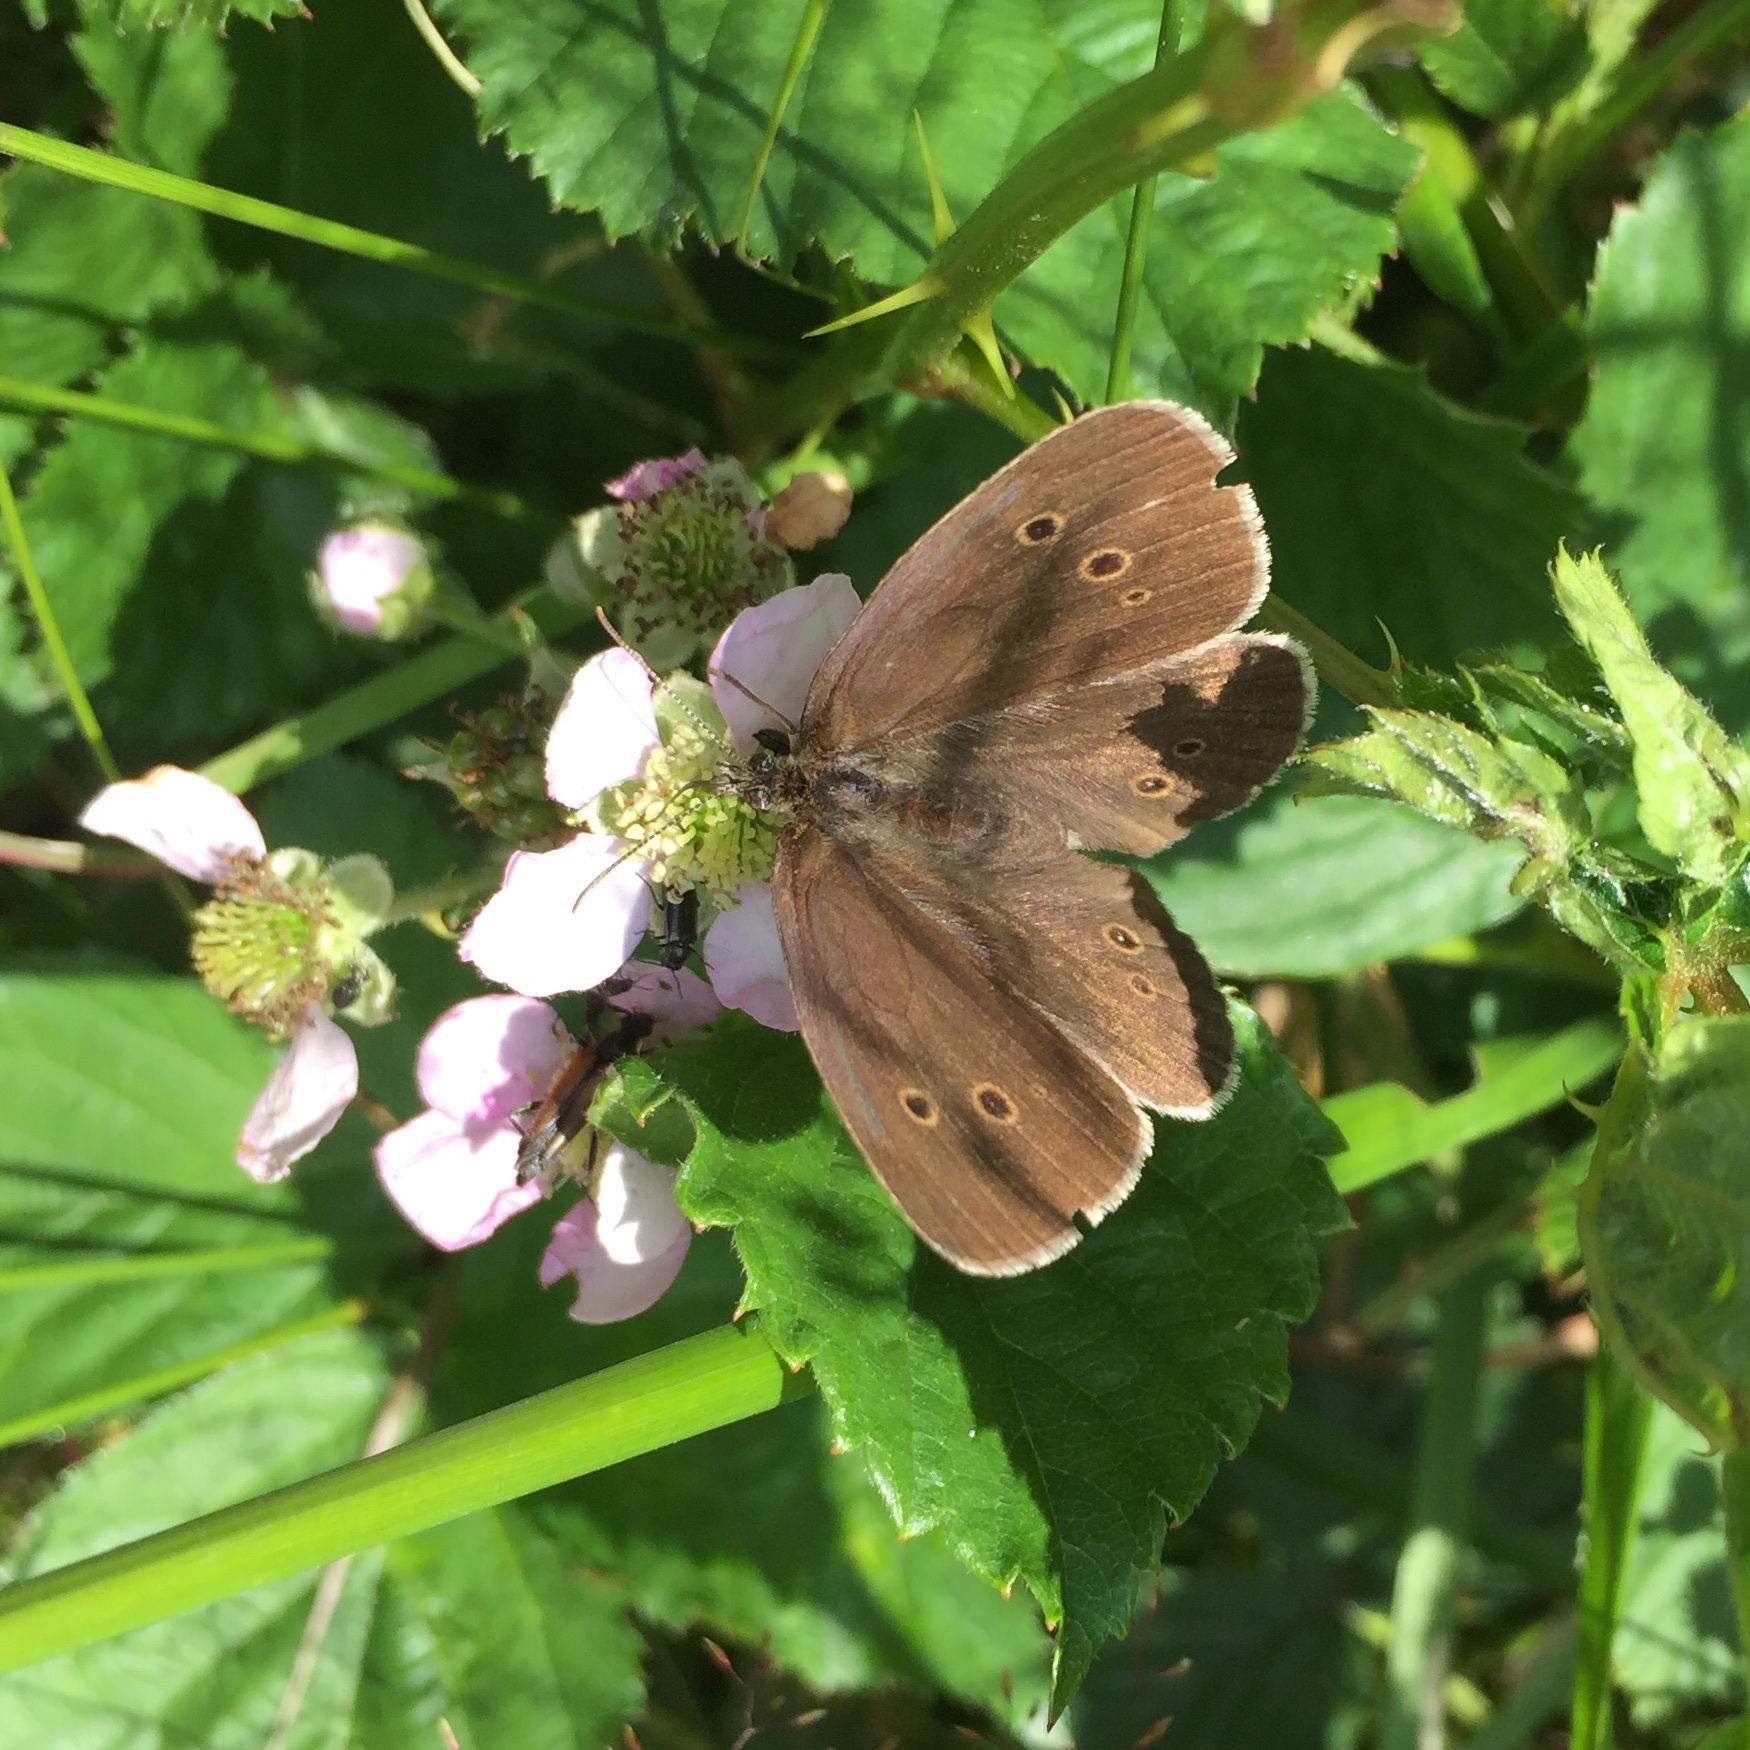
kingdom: Animalia
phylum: Arthropoda
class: Insecta
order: Lepidoptera
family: Nymphalidae
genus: Aphantopus
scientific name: Aphantopus hyperantus
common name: Ringlet
